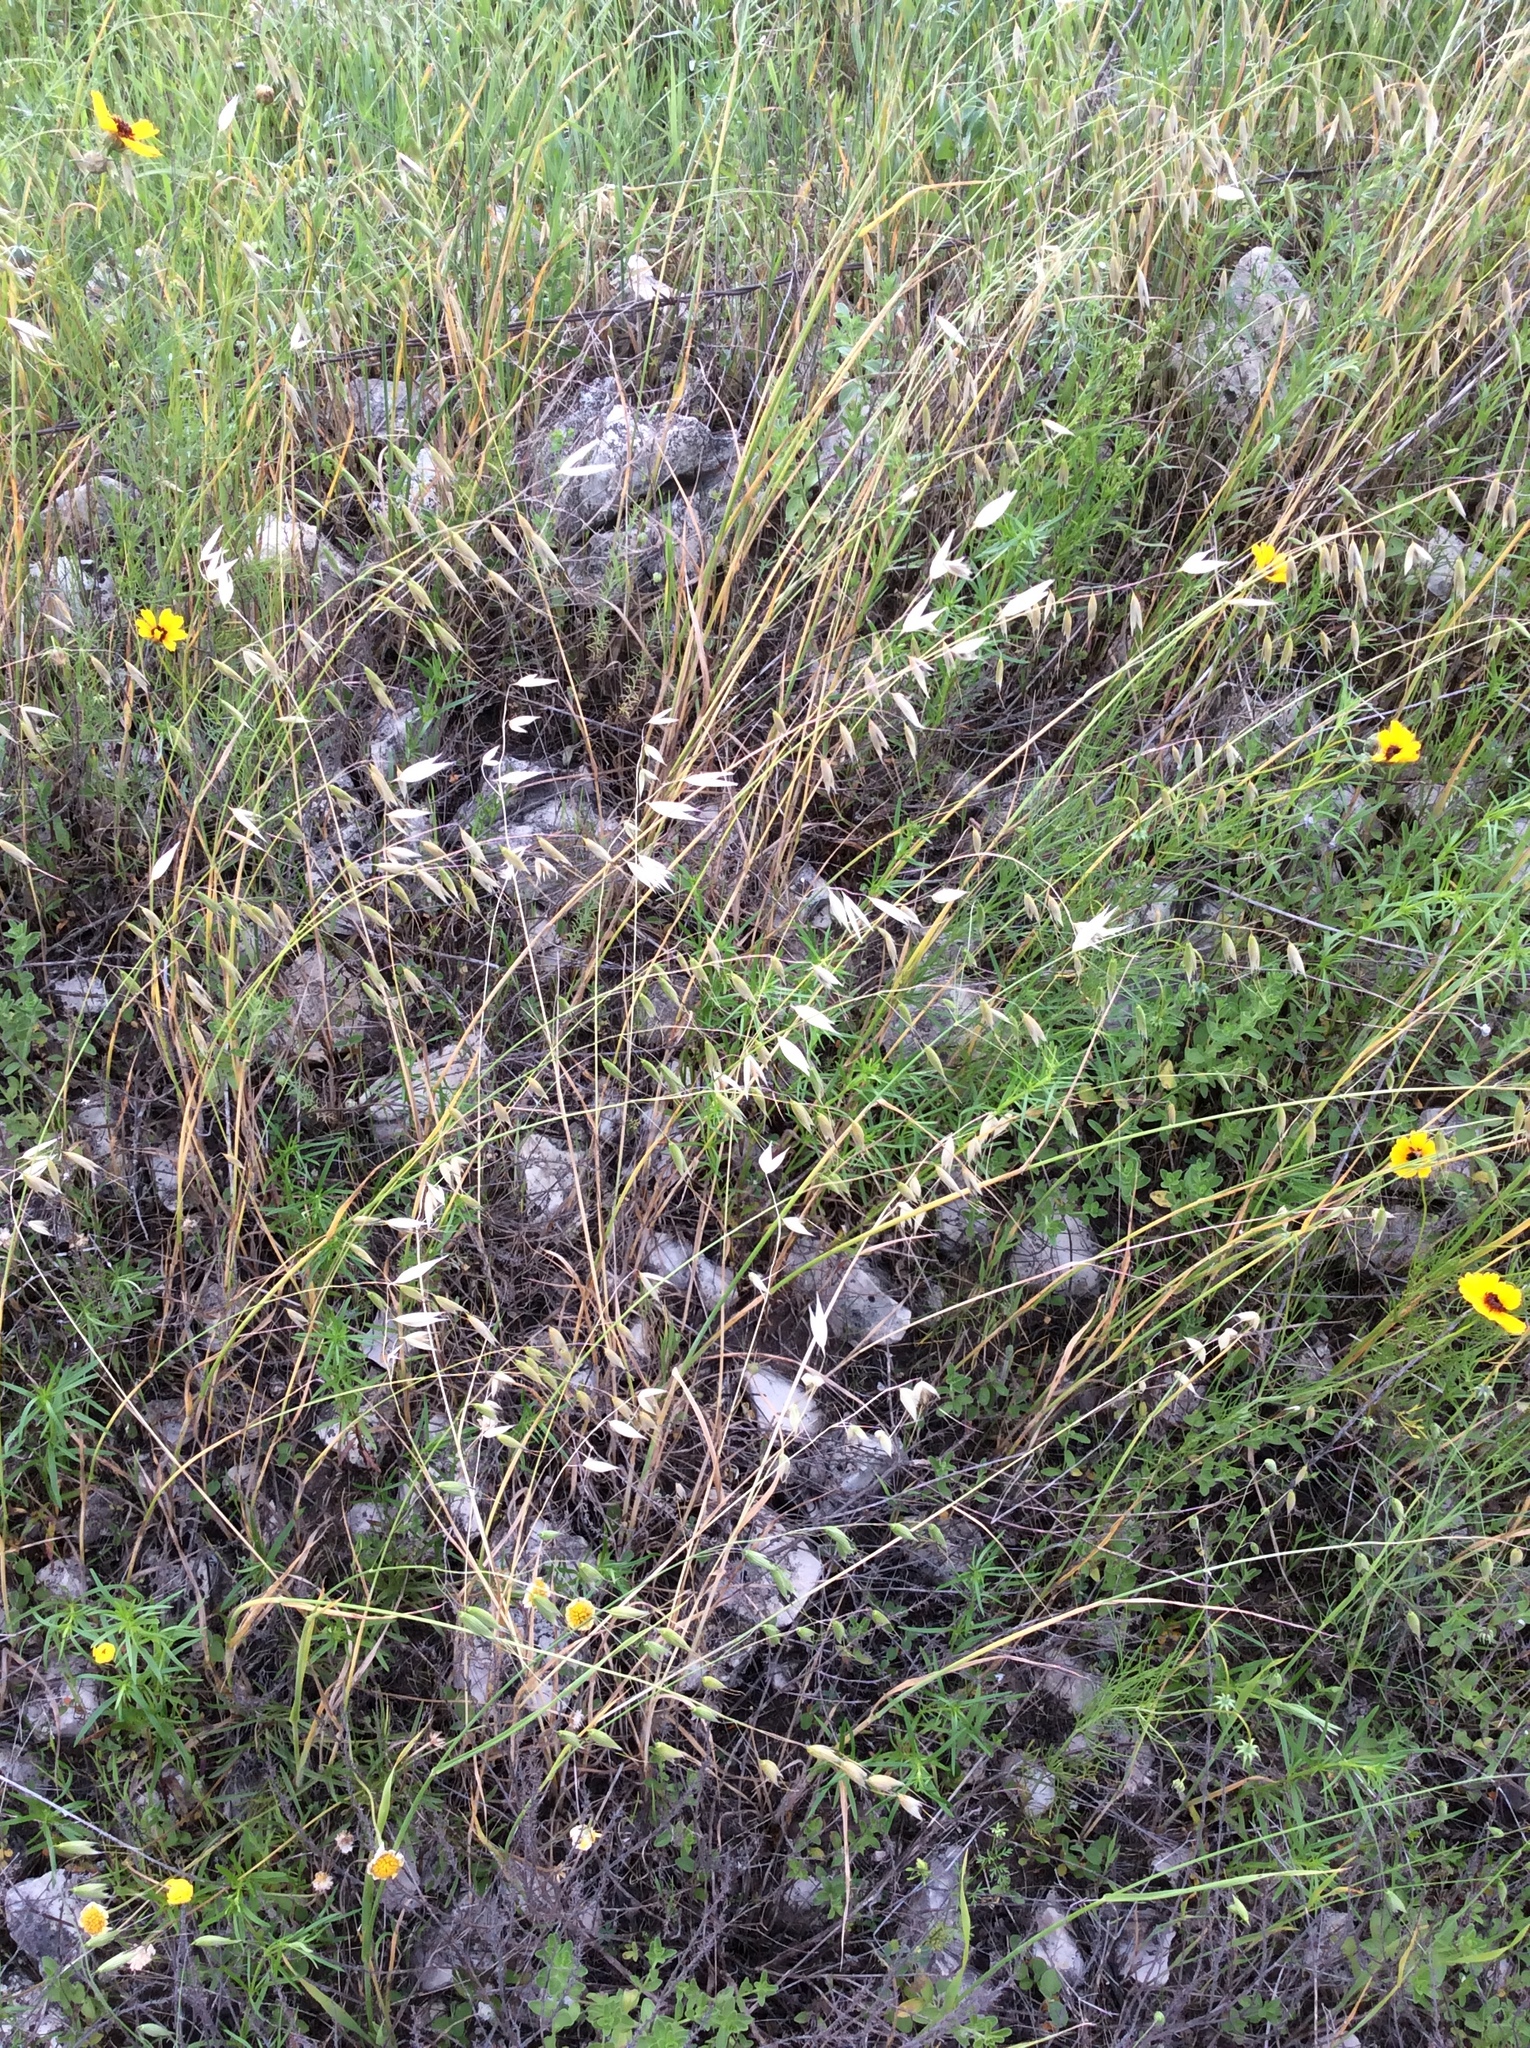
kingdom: Plantae
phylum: Tracheophyta
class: Liliopsida
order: Poales
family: Poaceae
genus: Avena
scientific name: Avena fatua
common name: Wild oat
